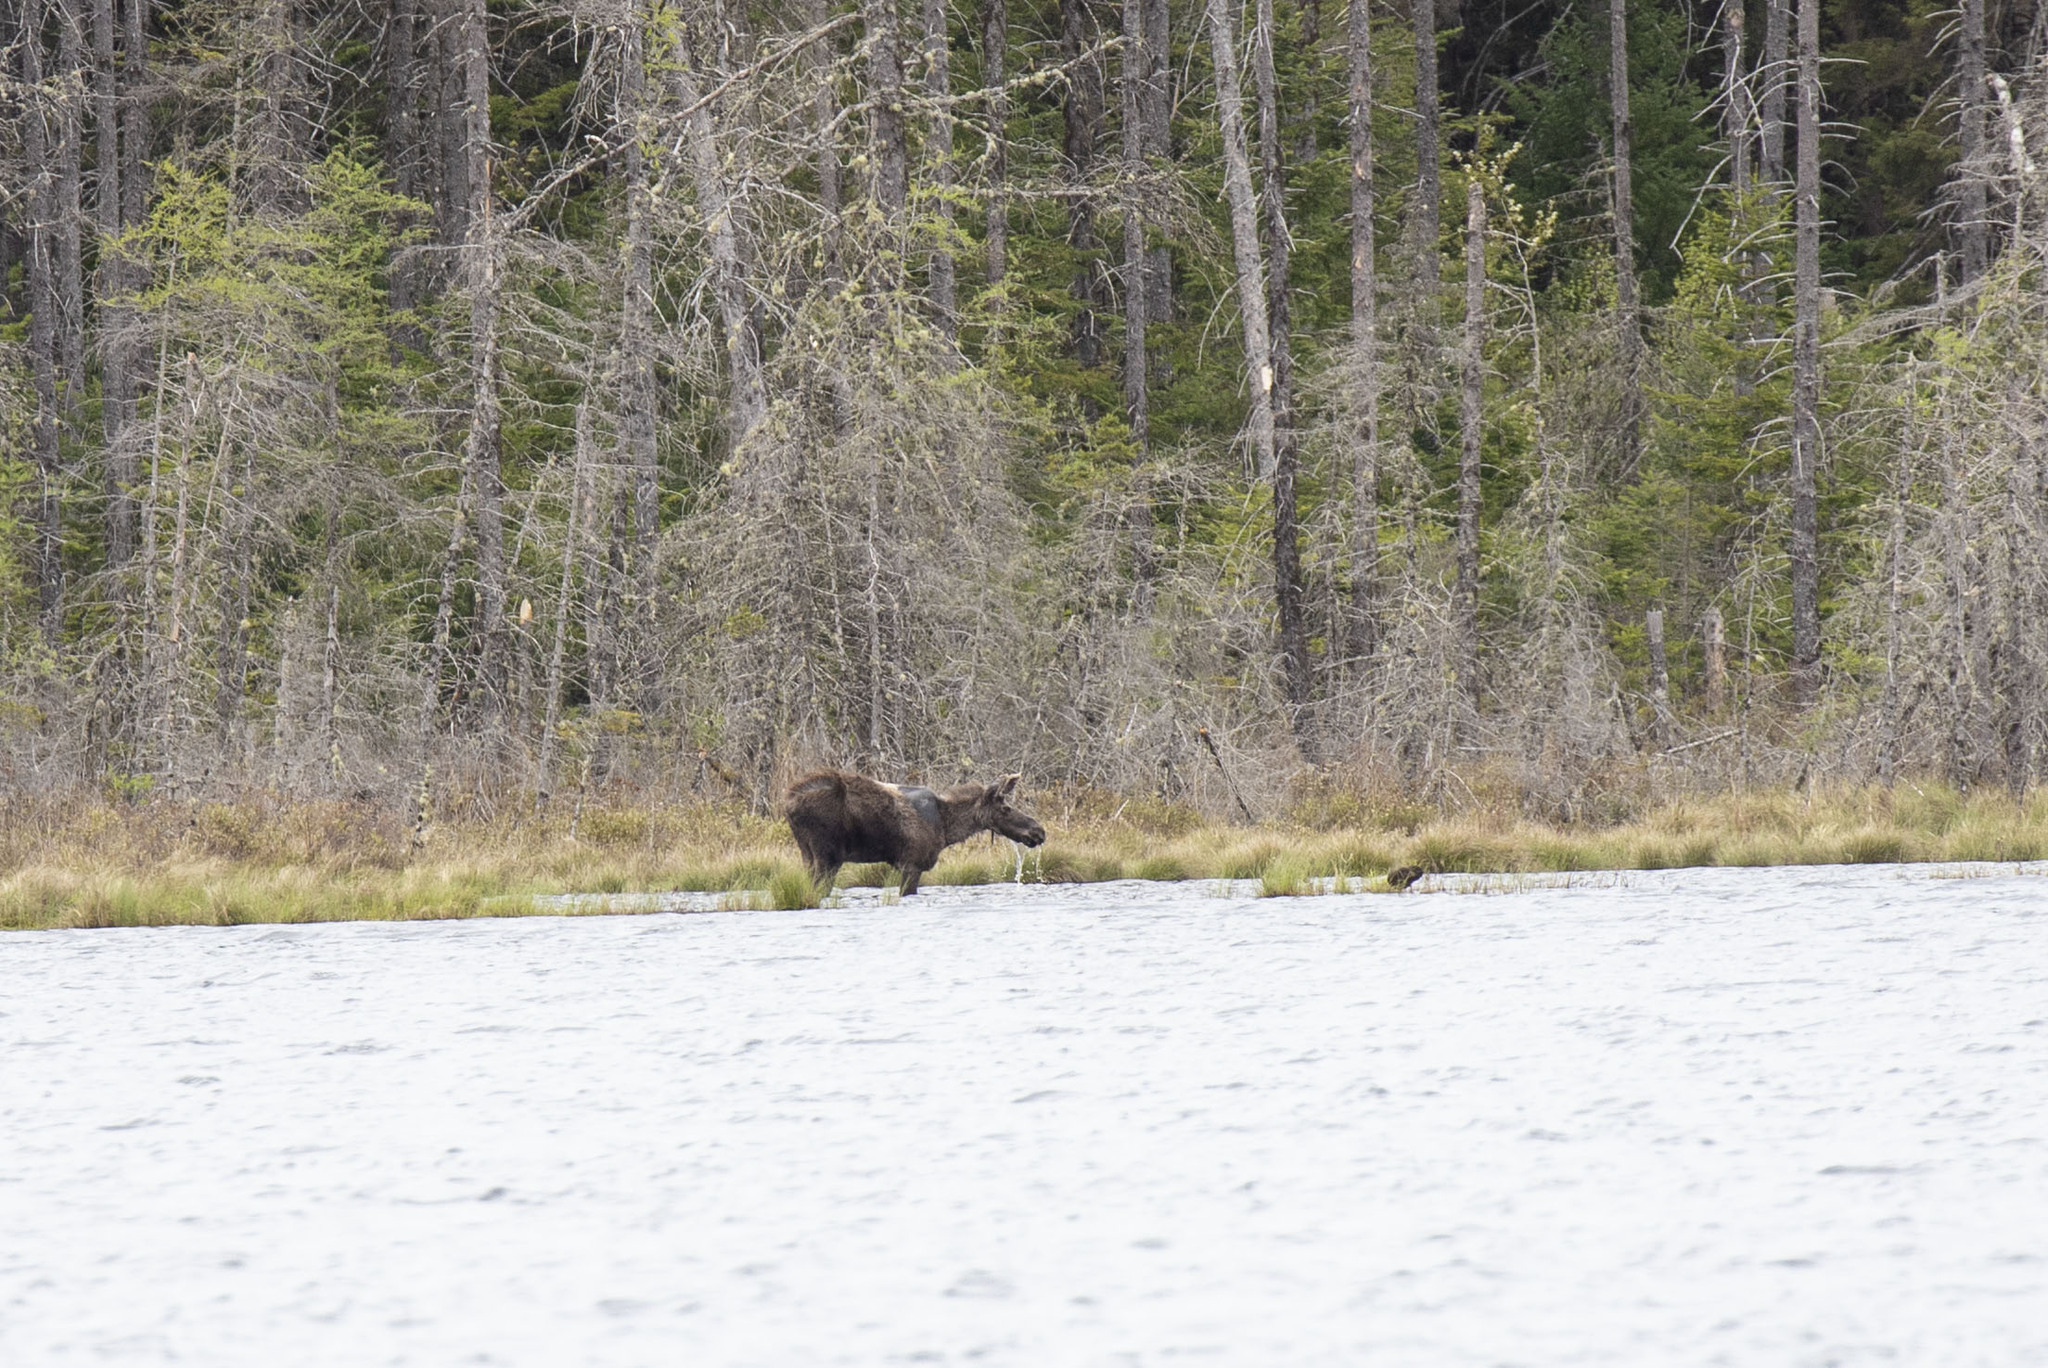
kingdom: Animalia
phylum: Chordata
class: Mammalia
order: Artiodactyla
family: Cervidae
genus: Alces
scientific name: Alces alces
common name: Moose
